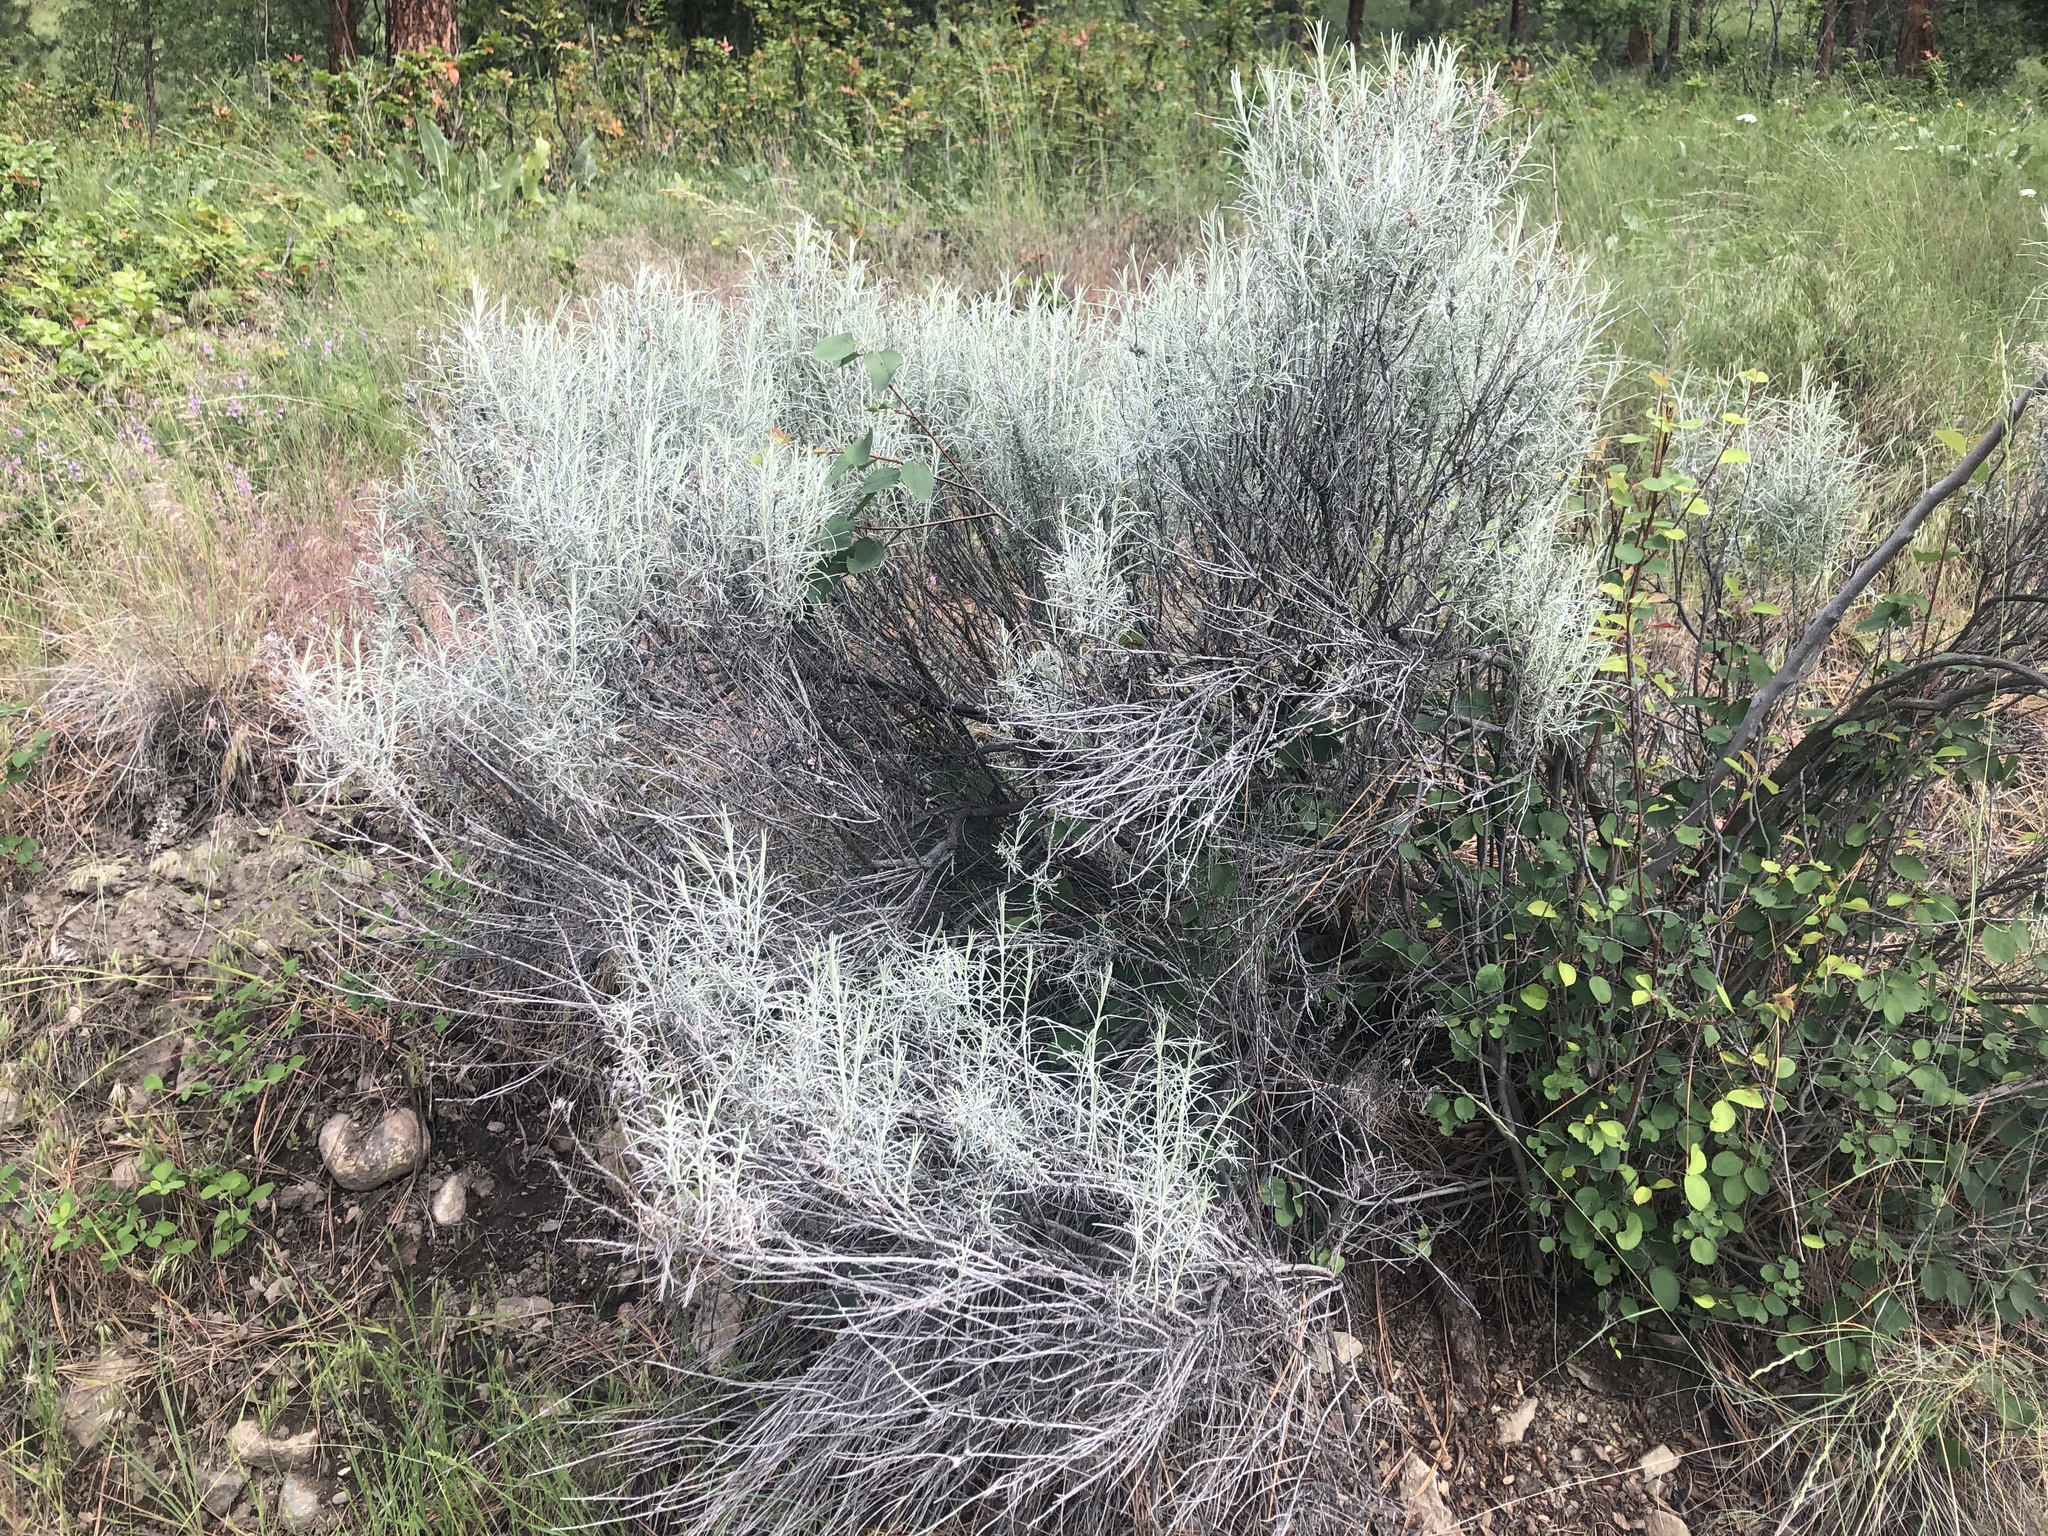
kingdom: Plantae
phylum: Tracheophyta
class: Magnoliopsida
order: Asterales
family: Asteraceae
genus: Ericameria
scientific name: Ericameria nauseosa
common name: Rubber rabbitbrush
